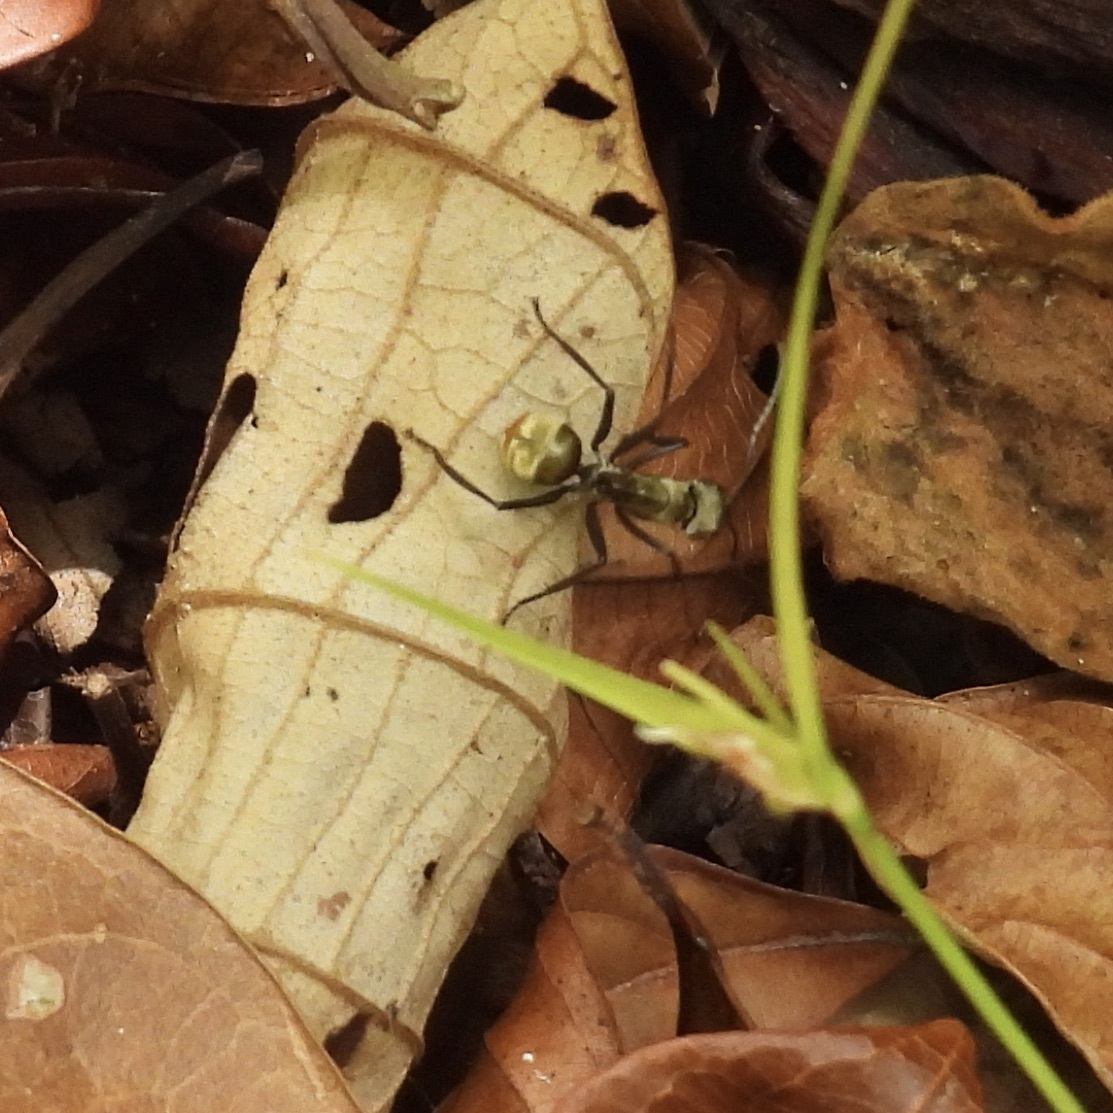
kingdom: Animalia
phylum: Arthropoda
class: Insecta
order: Hymenoptera
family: Formicidae
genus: Camponotus
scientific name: Camponotus sericeiventris
